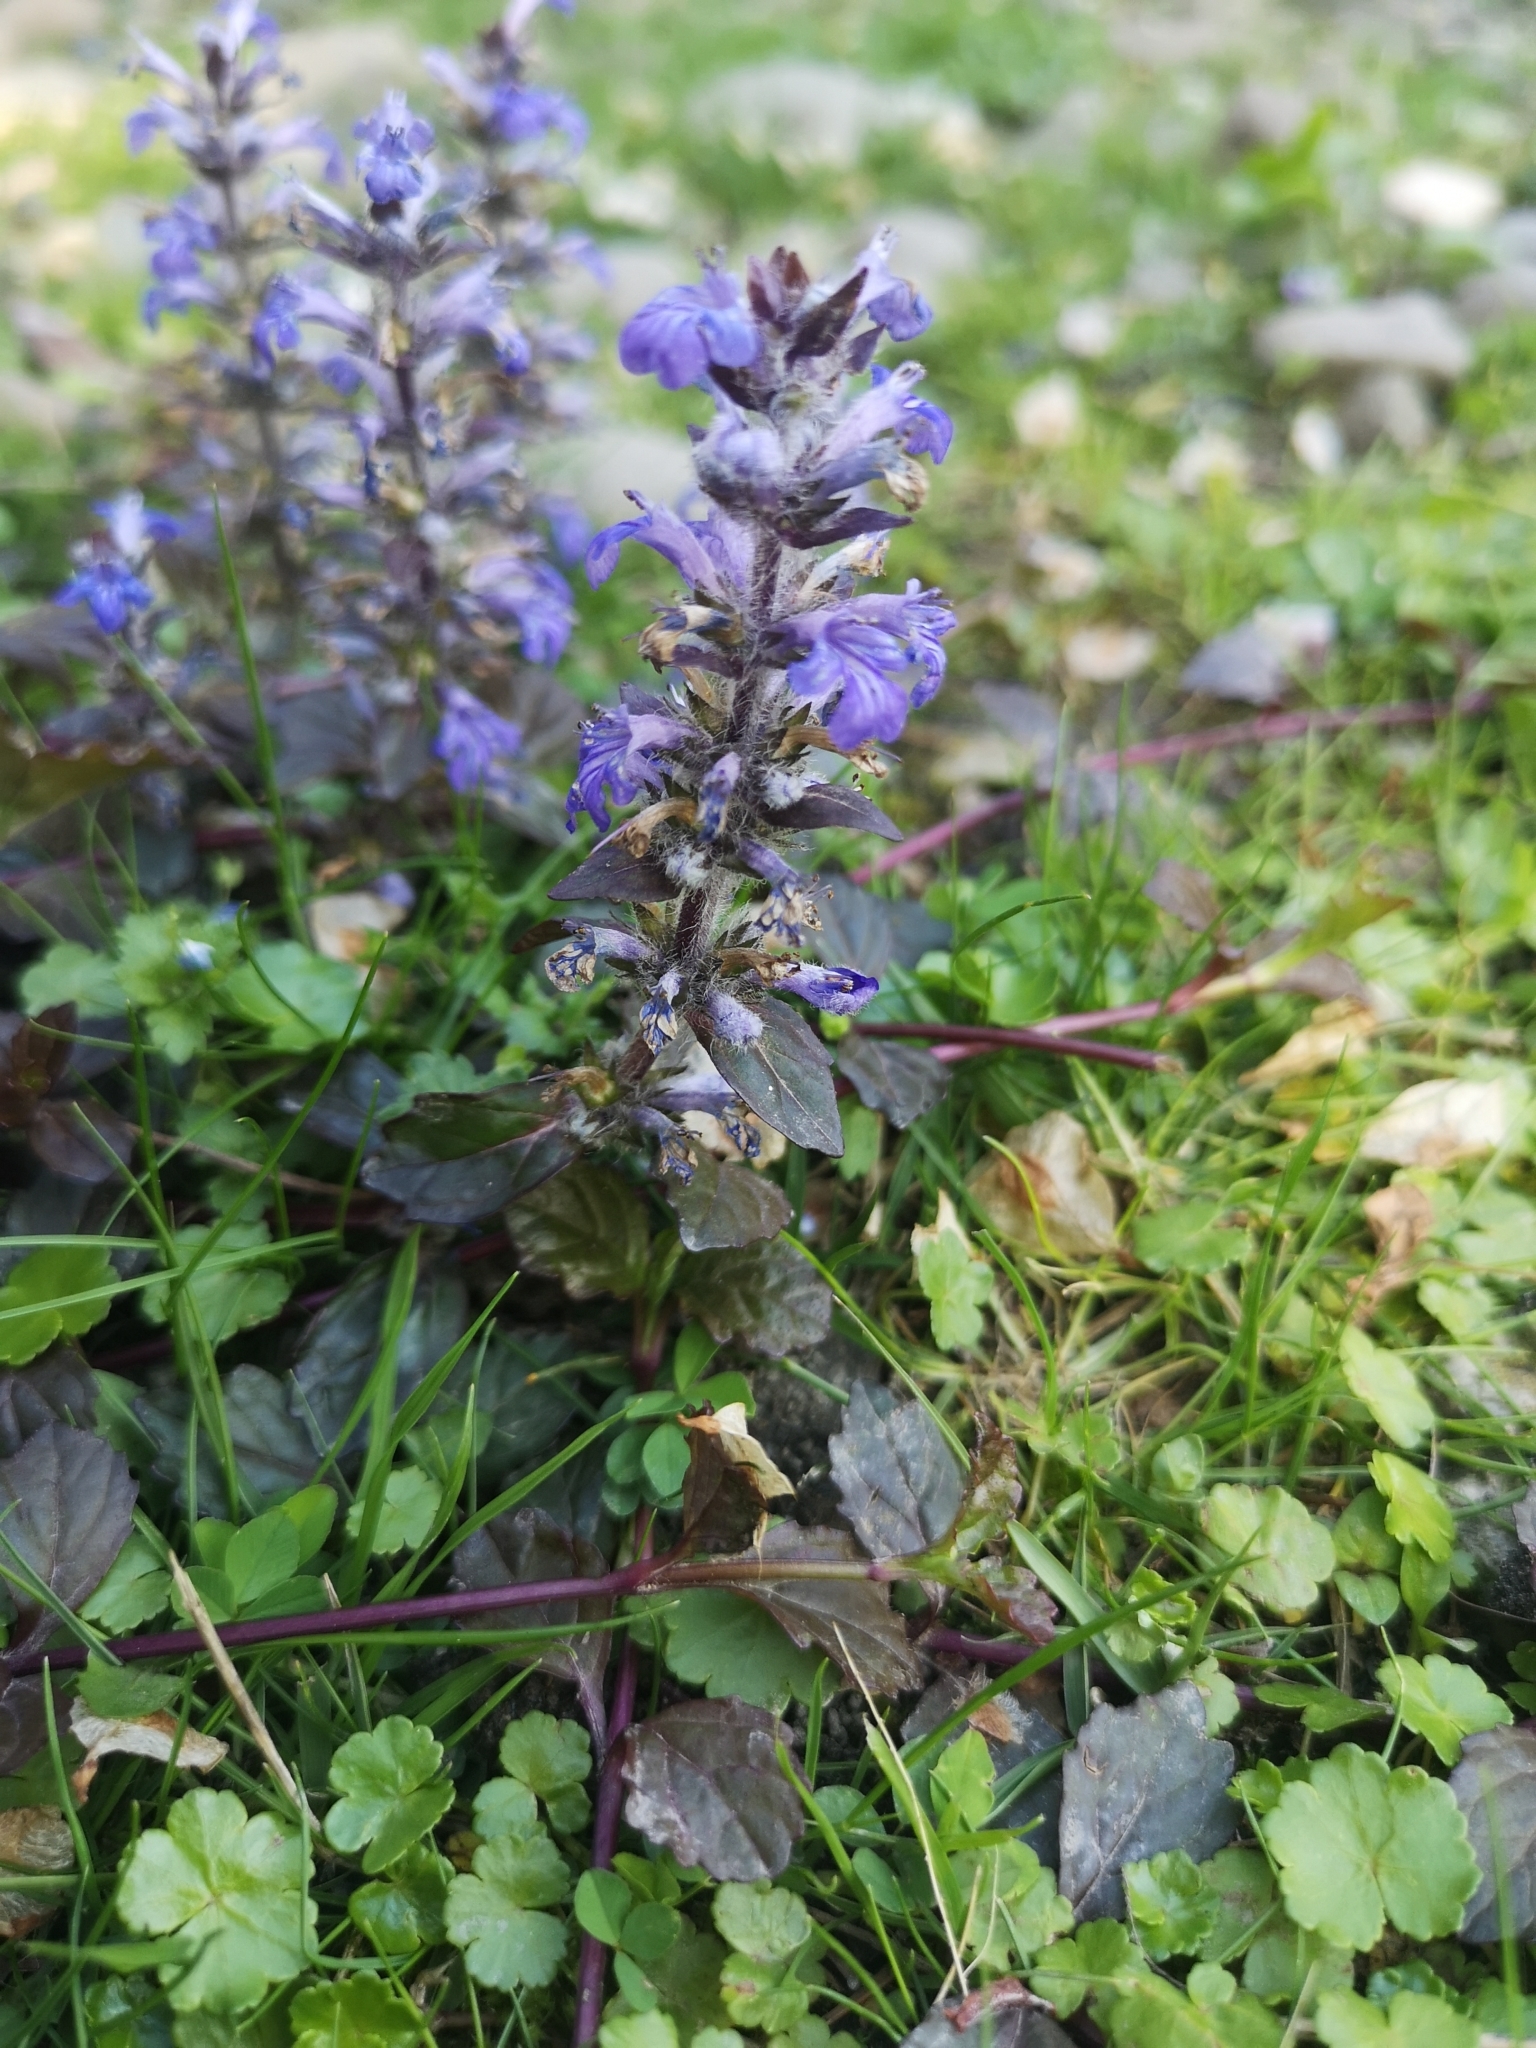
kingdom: Plantae
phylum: Tracheophyta
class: Magnoliopsida
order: Lamiales
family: Lamiaceae
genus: Ajuga
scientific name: Ajuga reptans
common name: Bugle
